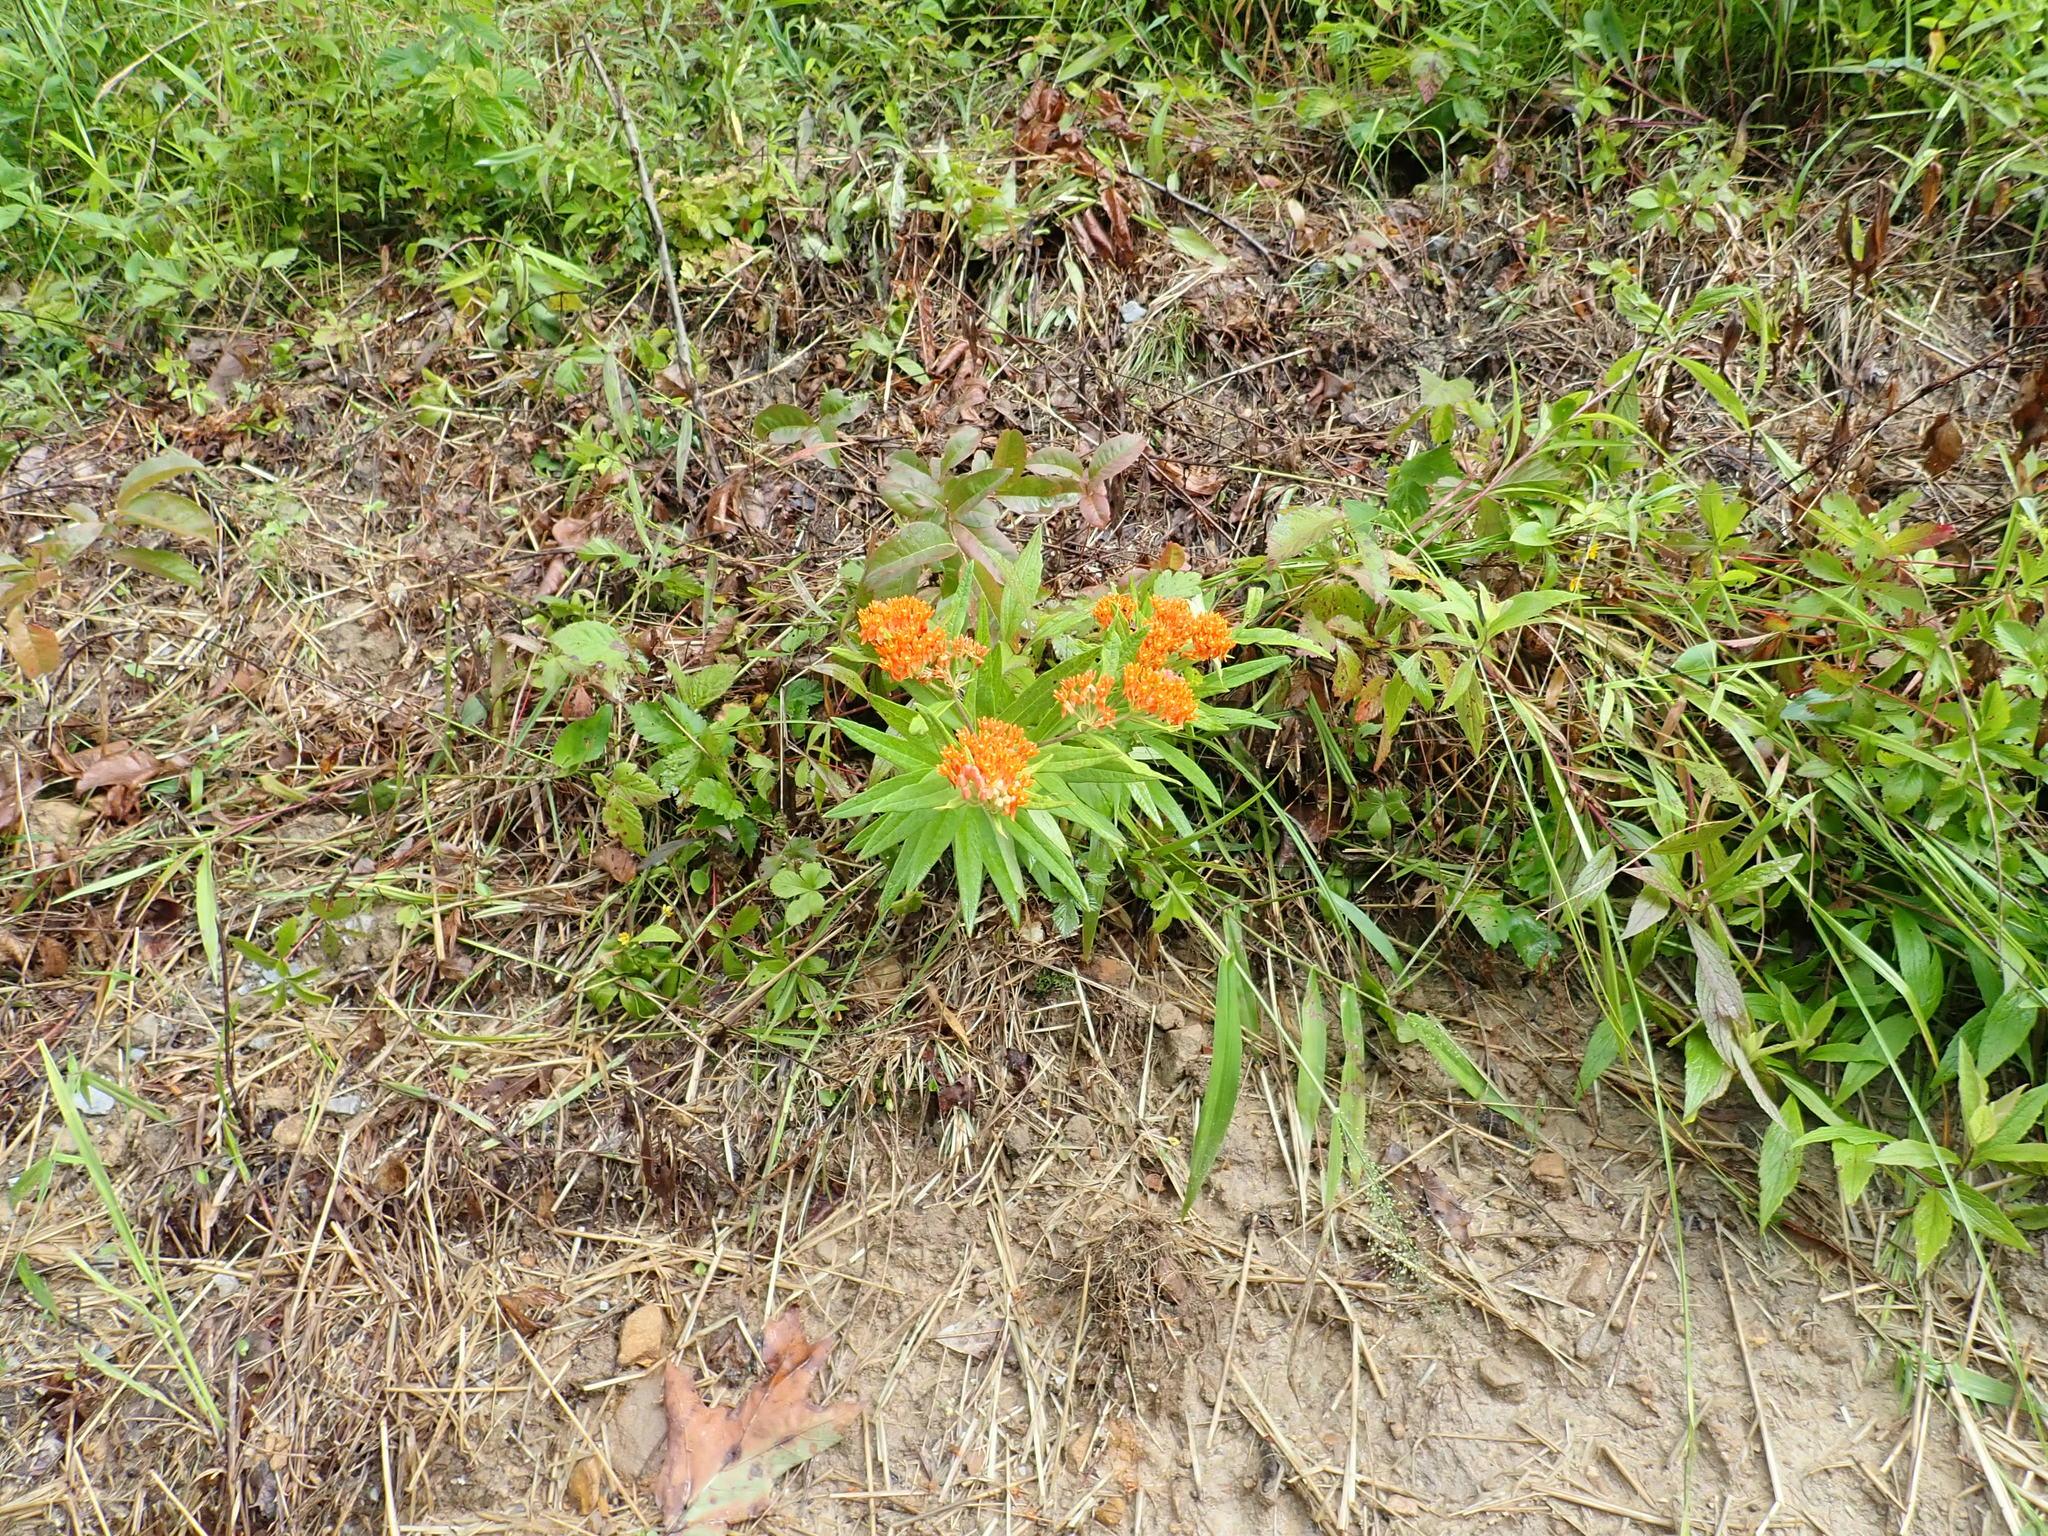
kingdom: Plantae
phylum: Tracheophyta
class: Magnoliopsida
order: Gentianales
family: Apocynaceae
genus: Asclepias
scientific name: Asclepias tuberosa
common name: Butterfly milkweed
